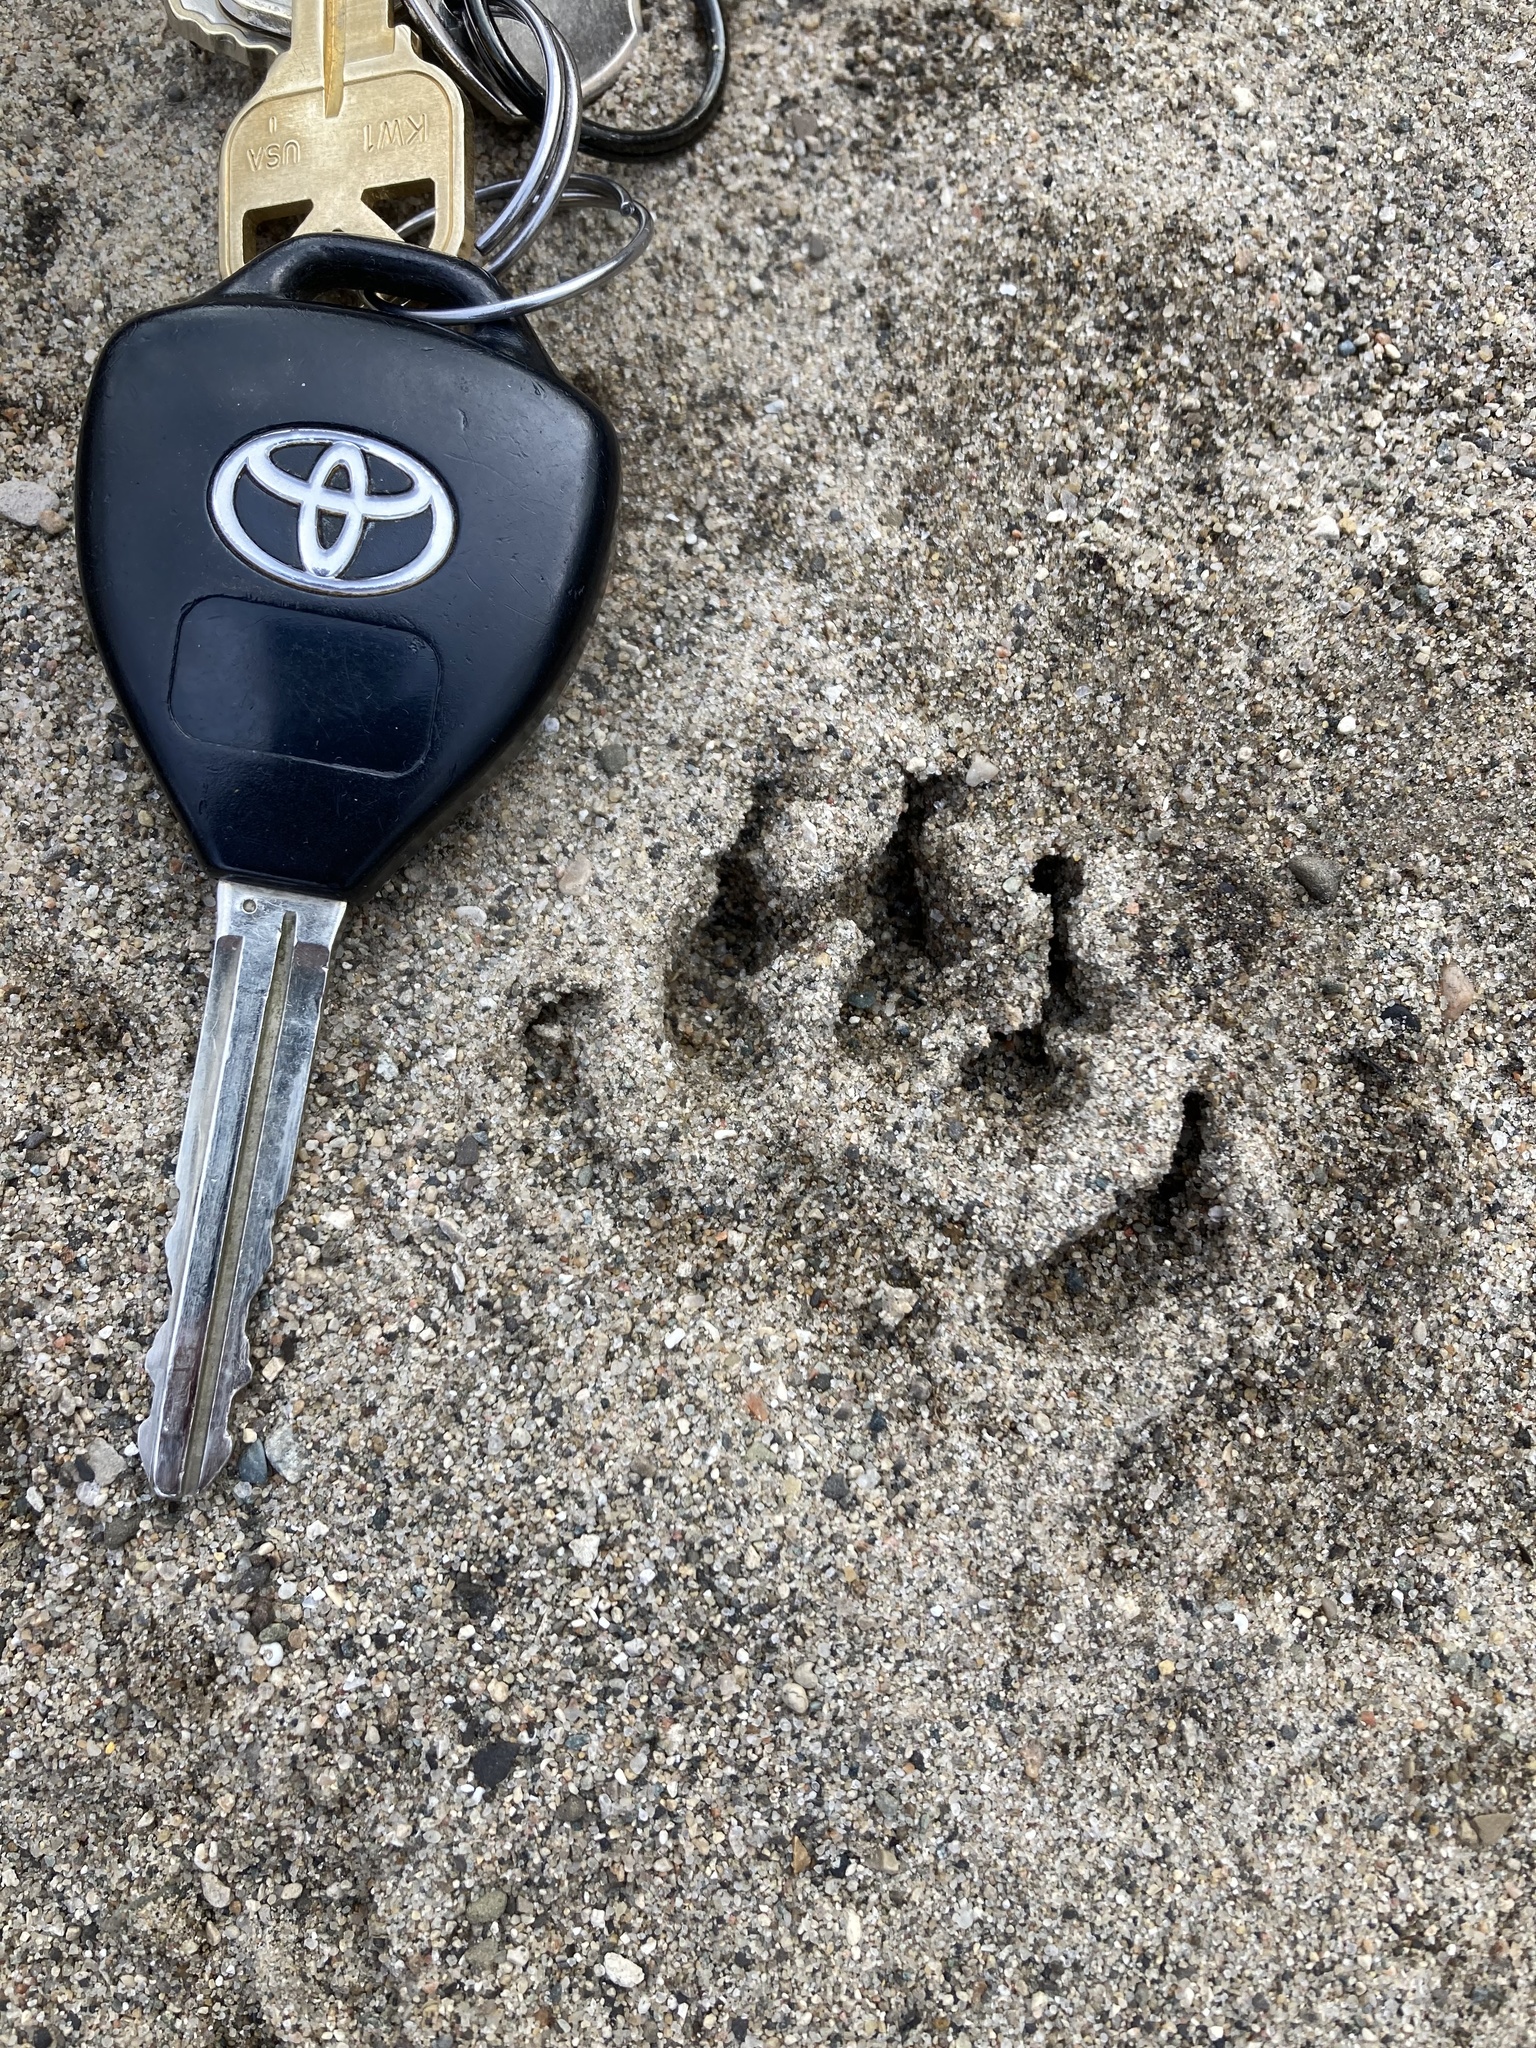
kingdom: Animalia
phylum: Chordata
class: Mammalia
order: Carnivora
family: Procyonidae
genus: Procyon
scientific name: Procyon lotor
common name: Raccoon
